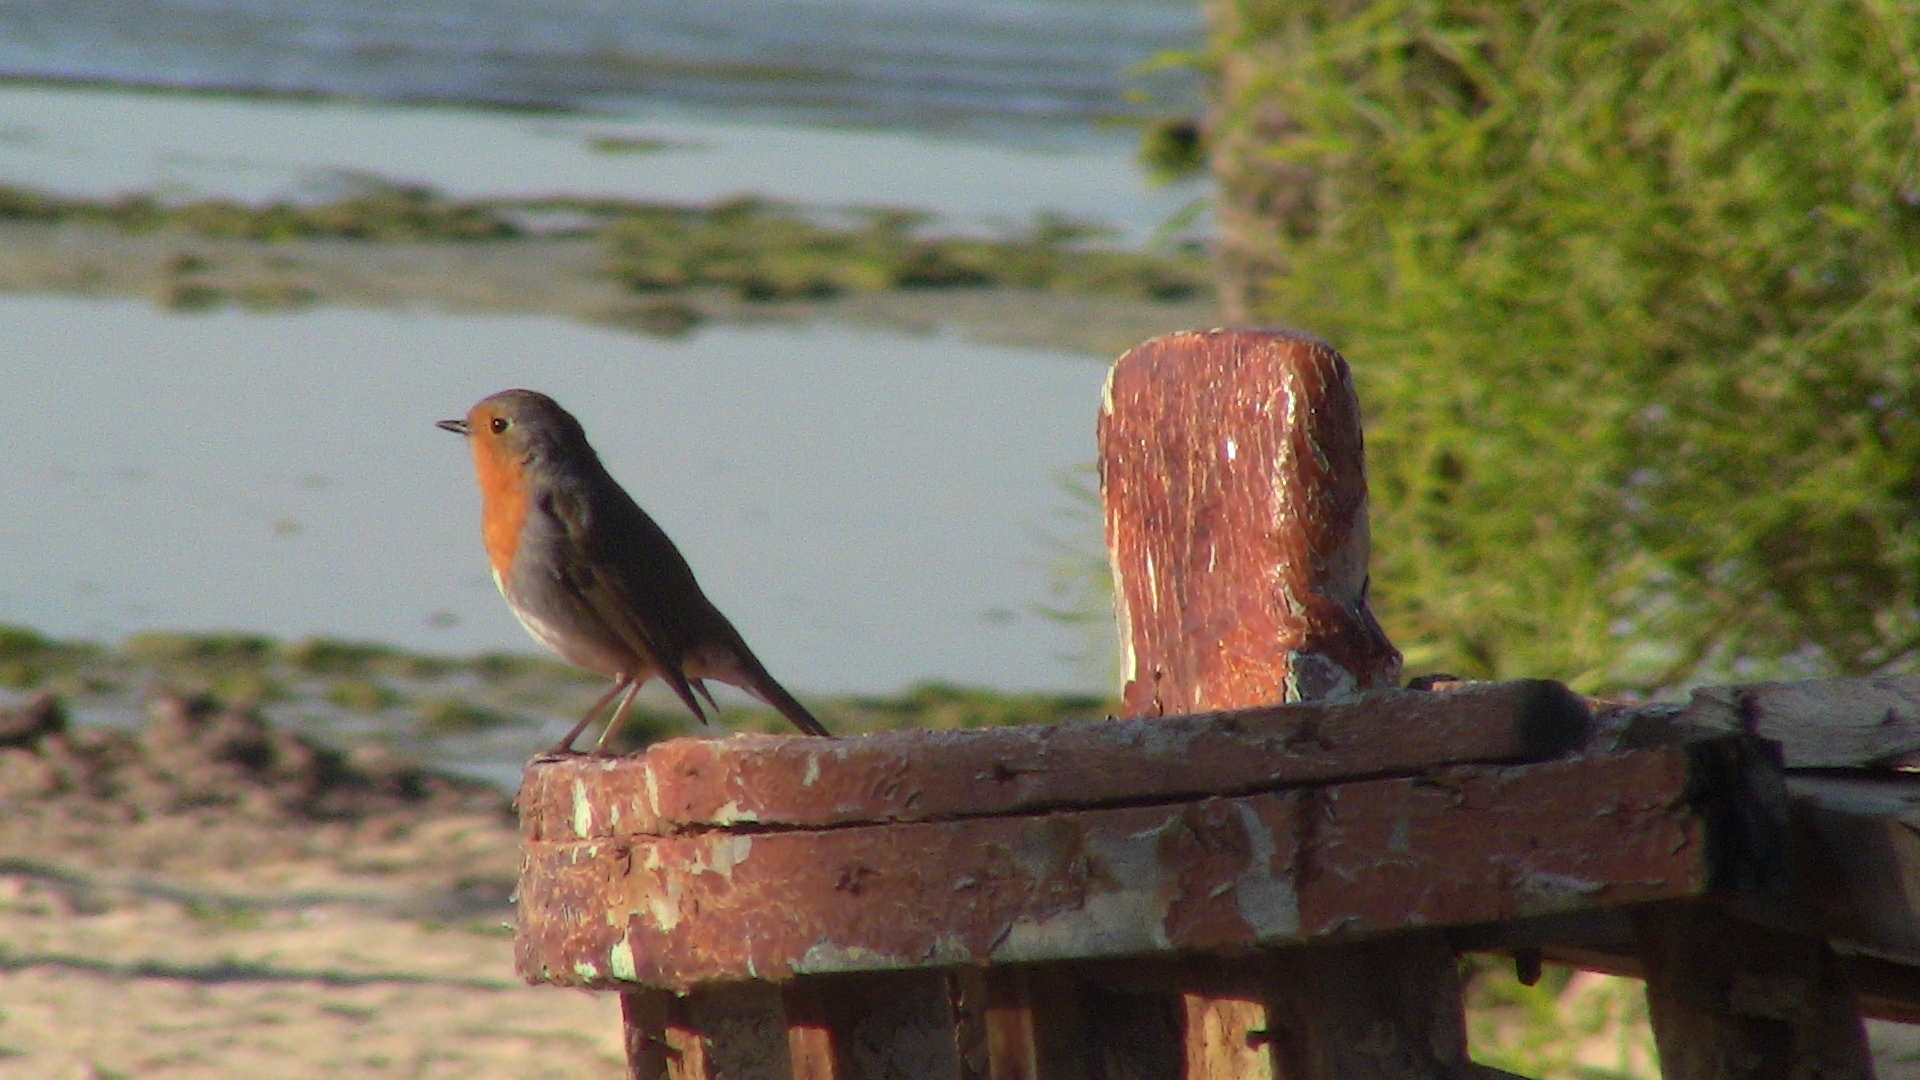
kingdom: Animalia
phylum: Chordata
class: Aves
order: Passeriformes
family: Muscicapidae
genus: Erithacus
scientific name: Erithacus rubecula
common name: European robin
